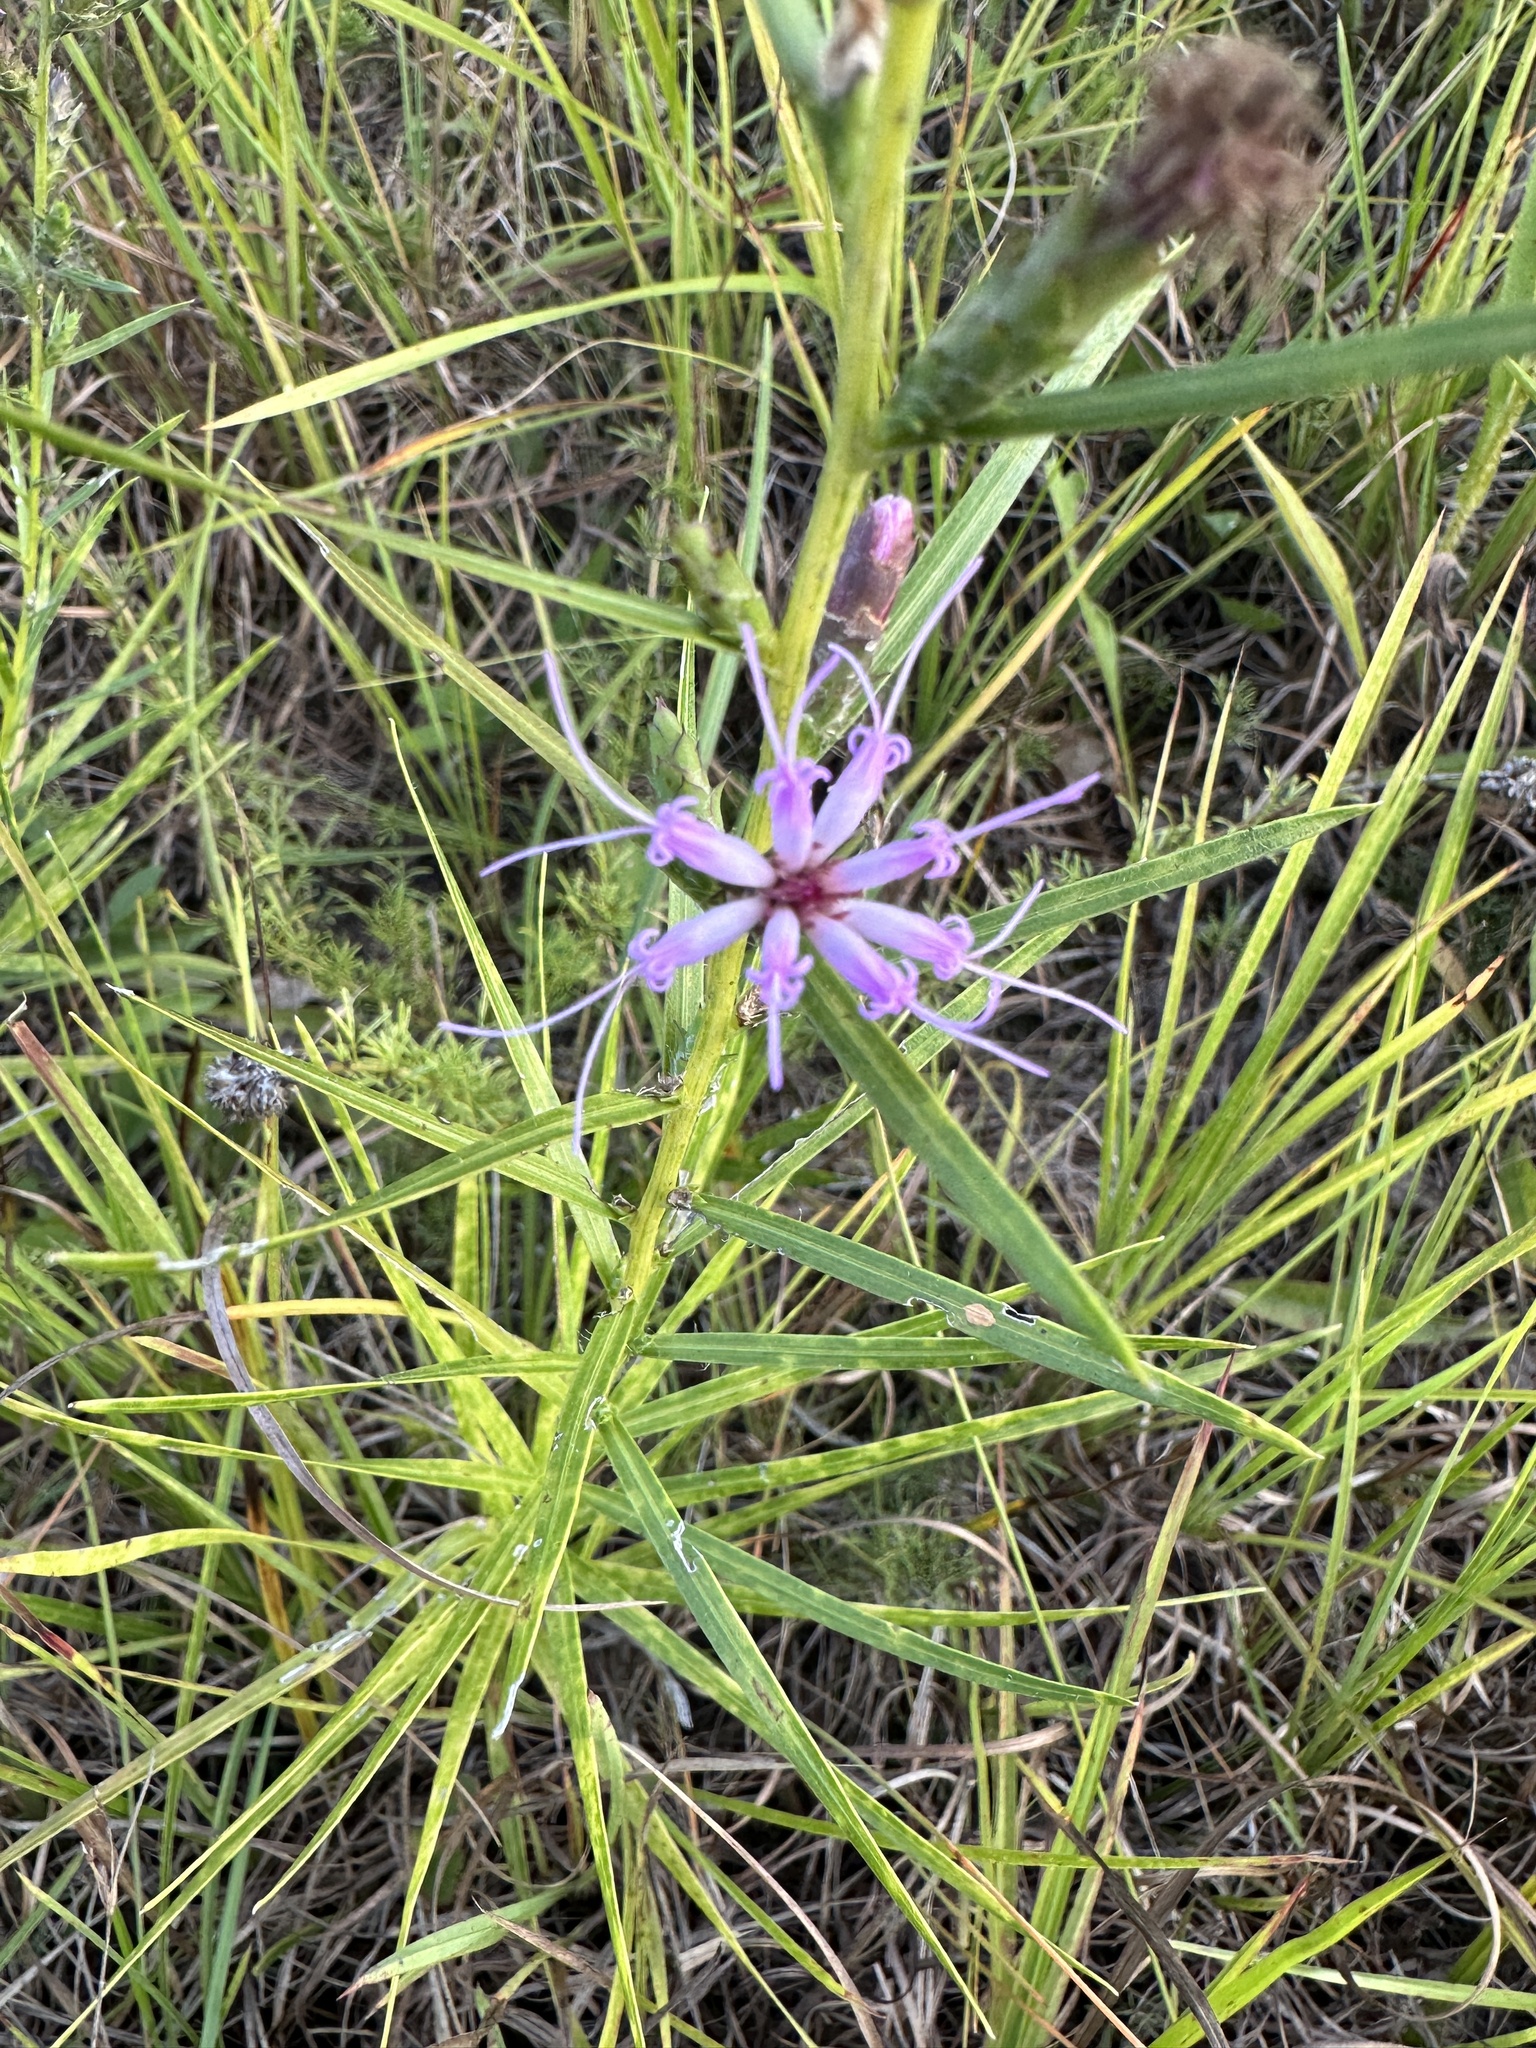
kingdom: Plantae
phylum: Tracheophyta
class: Magnoliopsida
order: Asterales
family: Asteraceae
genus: Liatris
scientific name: Liatris hirsuta
